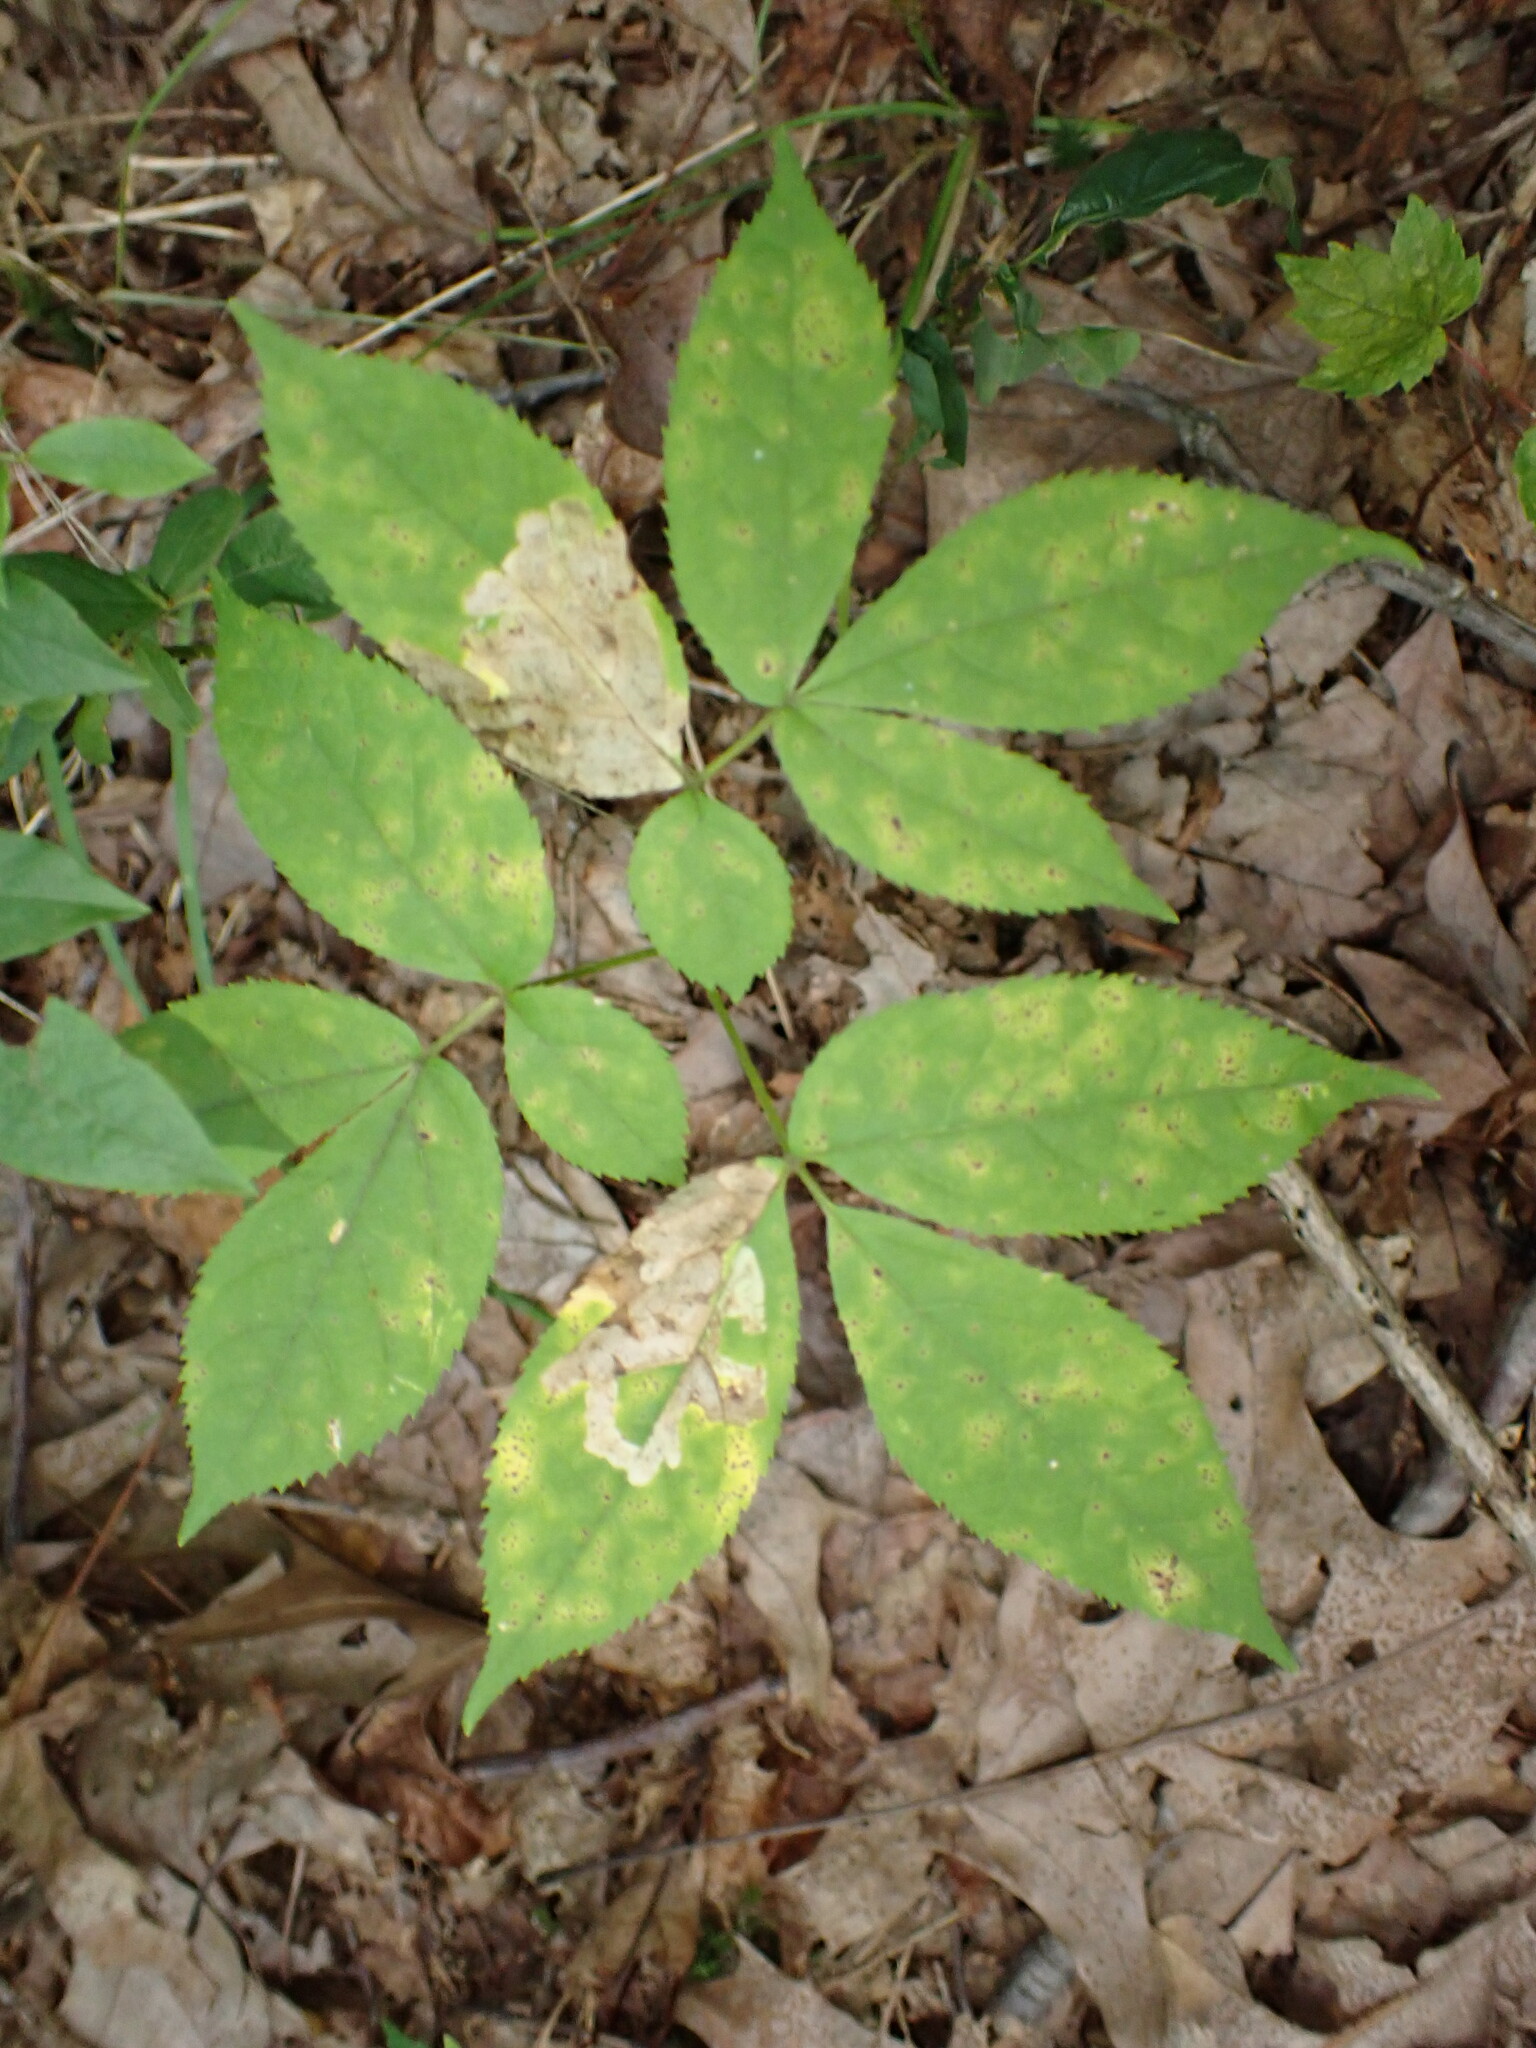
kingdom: Animalia
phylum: Arthropoda
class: Insecta
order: Diptera
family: Agromyzidae
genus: Phytomyza
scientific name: Phytomyza aralivora
